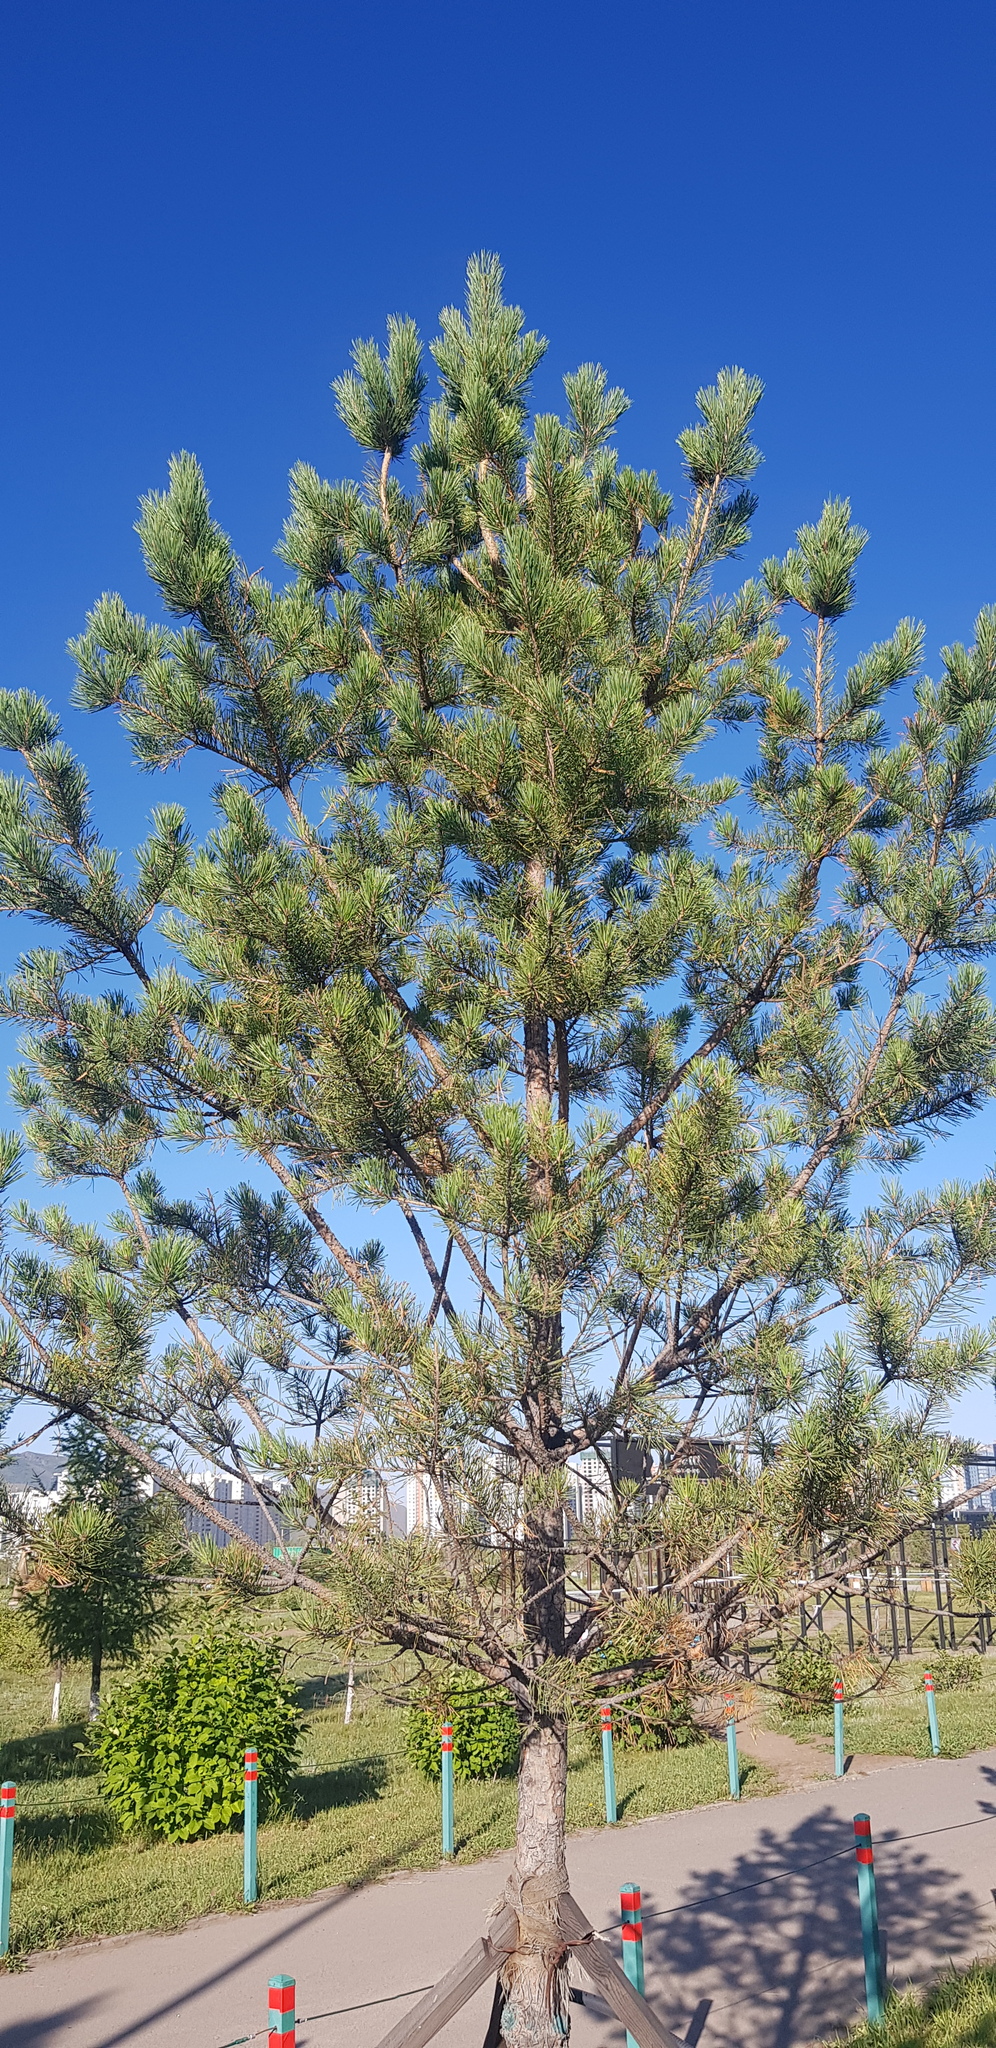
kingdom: Plantae
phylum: Tracheophyta
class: Pinopsida
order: Pinales
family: Pinaceae
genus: Pinus
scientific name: Pinus sylvestris
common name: Scots pine
